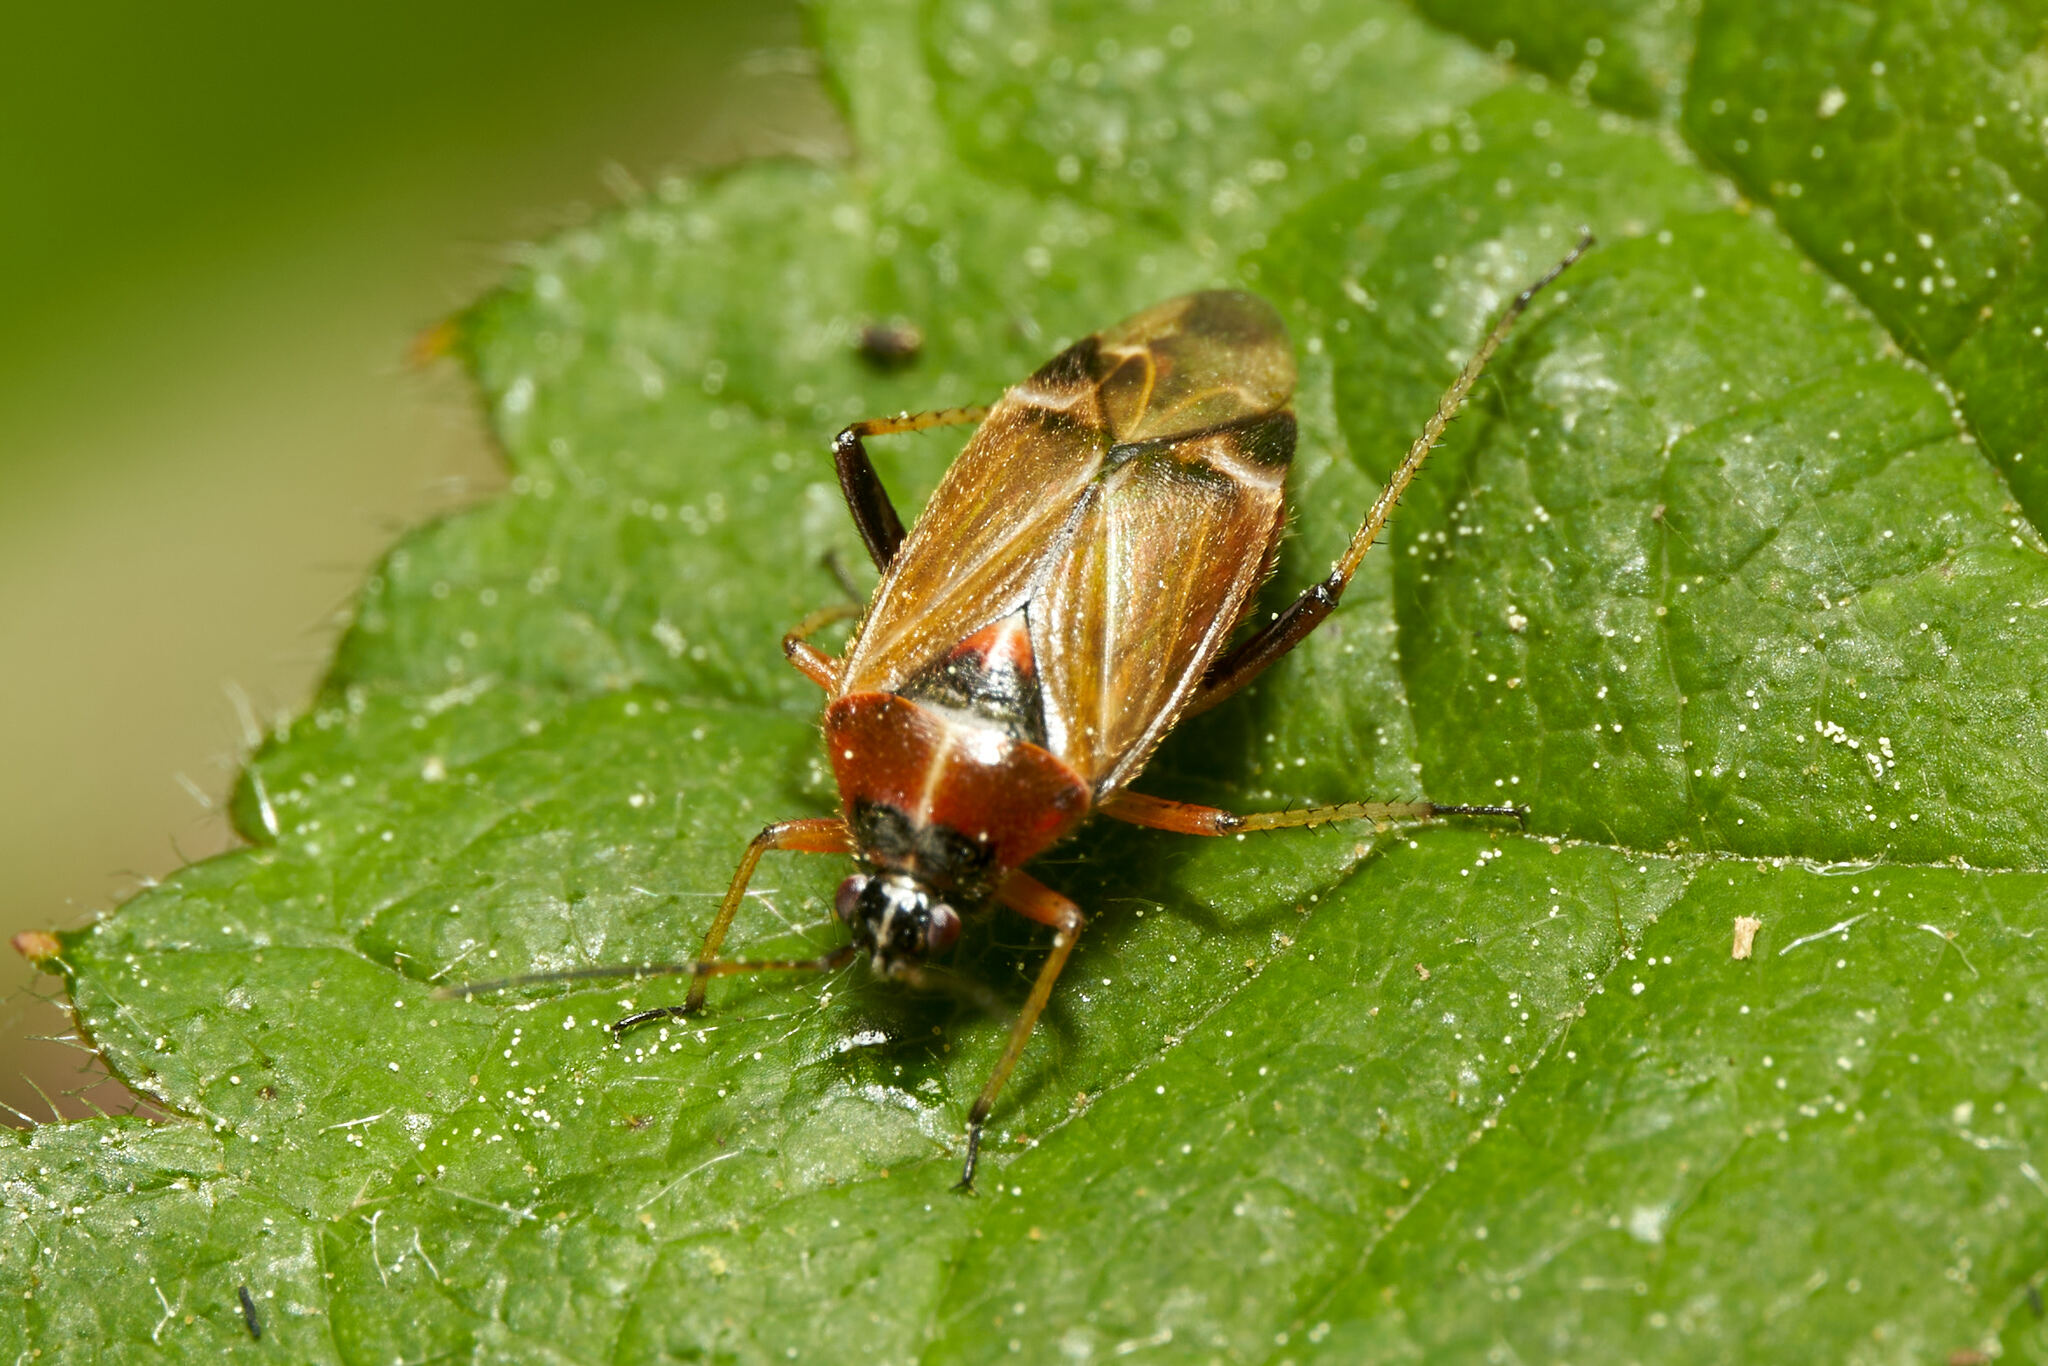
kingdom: Animalia
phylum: Arthropoda
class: Insecta
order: Hemiptera
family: Miridae
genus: Harpocera
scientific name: Harpocera thoracica
